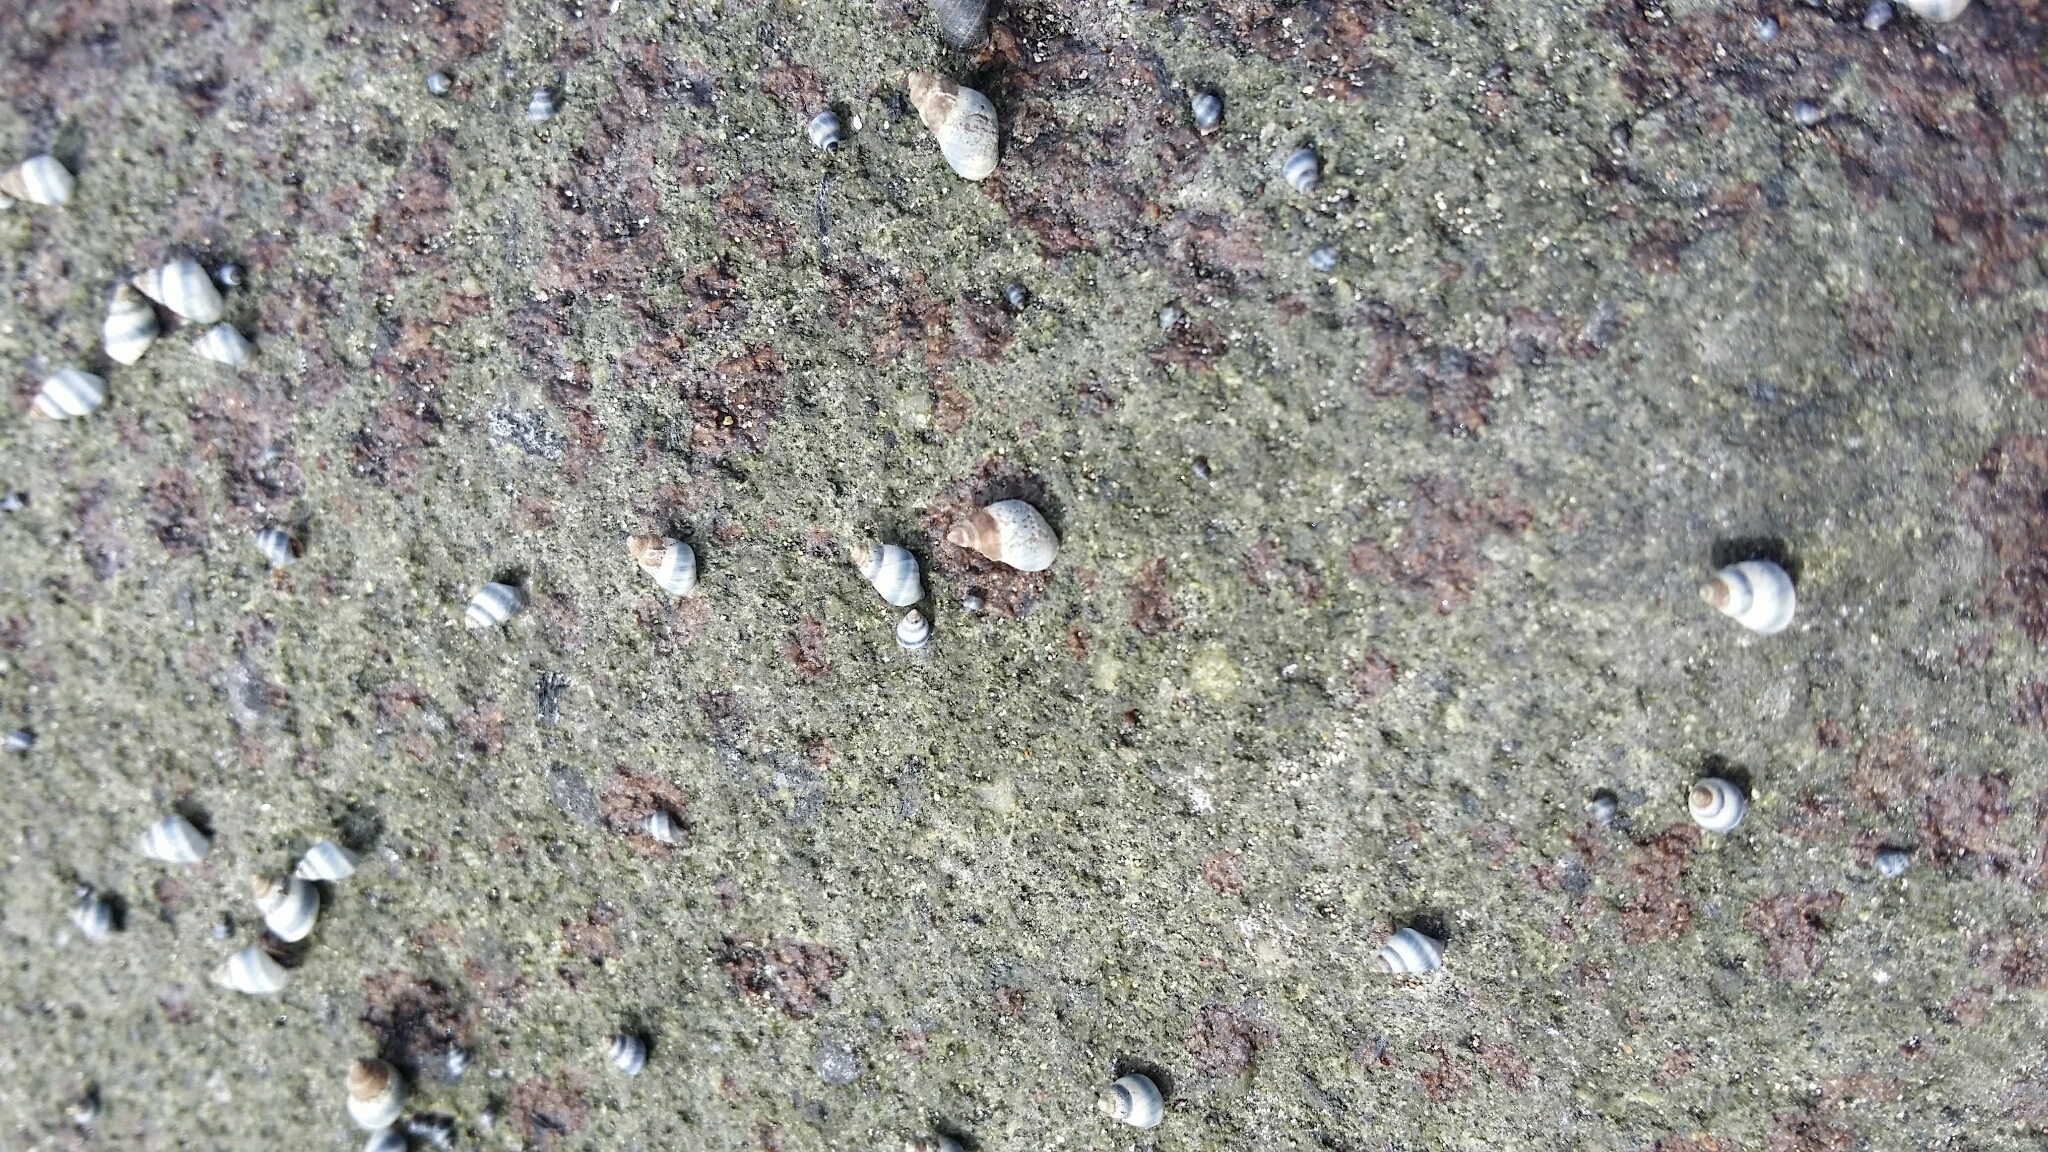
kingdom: Animalia
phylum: Mollusca
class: Gastropoda
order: Littorinimorpha
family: Littorinidae
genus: Austrolittorina
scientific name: Austrolittorina antipodum
